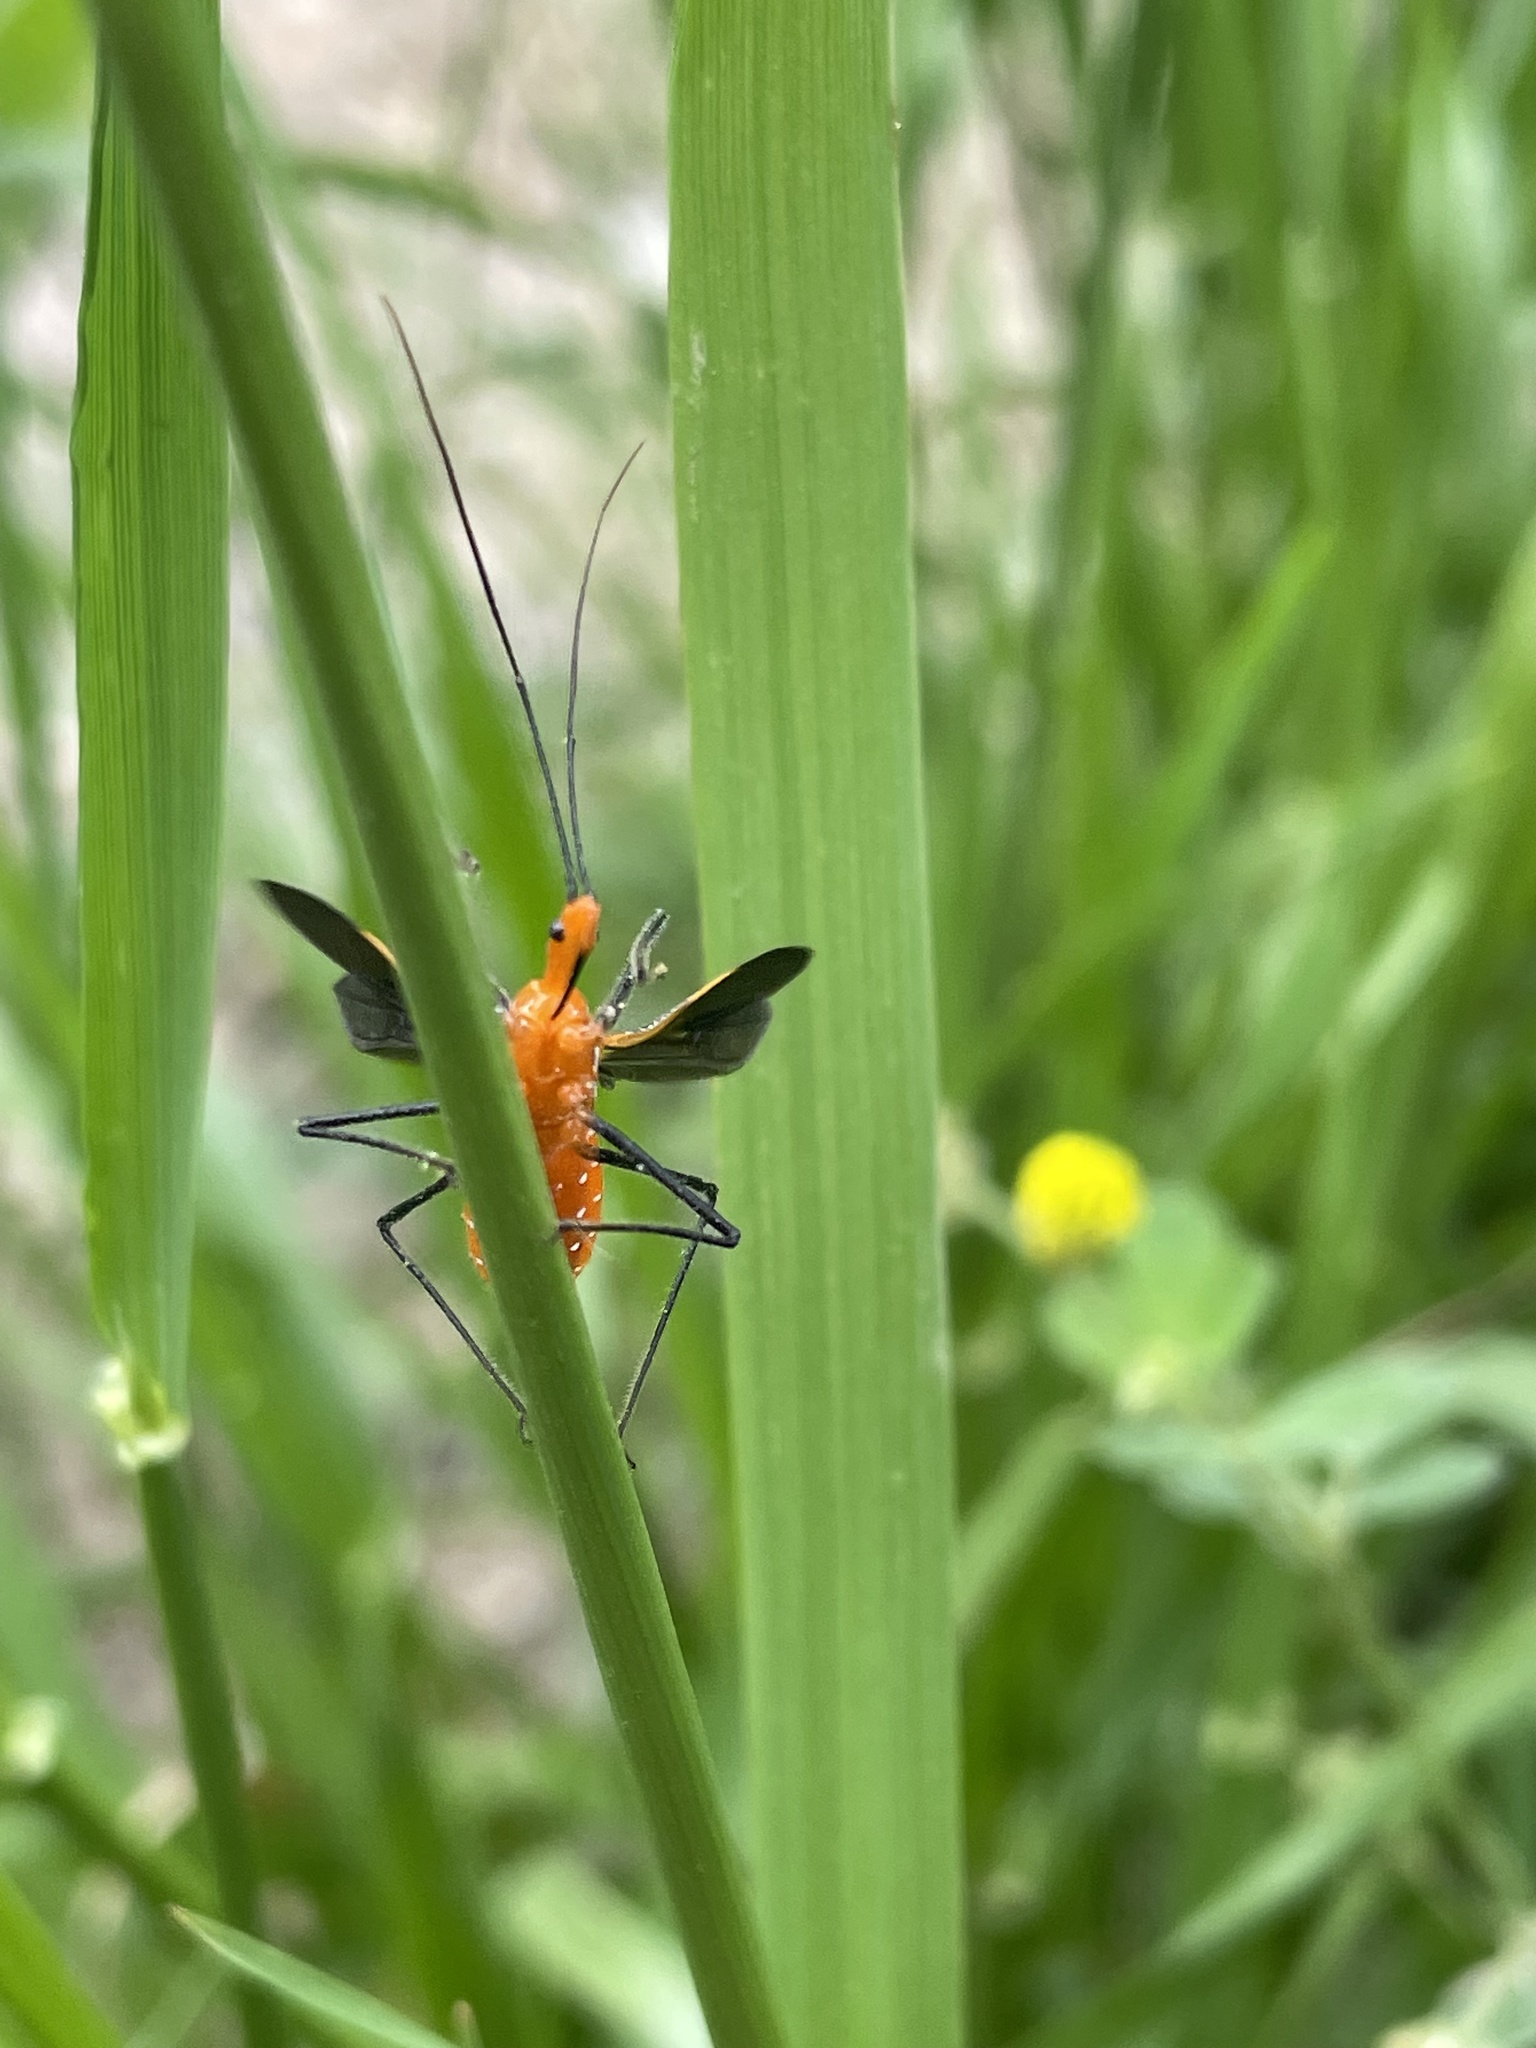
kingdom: Animalia
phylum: Arthropoda
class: Insecta
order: Hemiptera
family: Reduviidae
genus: Zelus
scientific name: Zelus longipes
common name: Milkweed assassin bug
